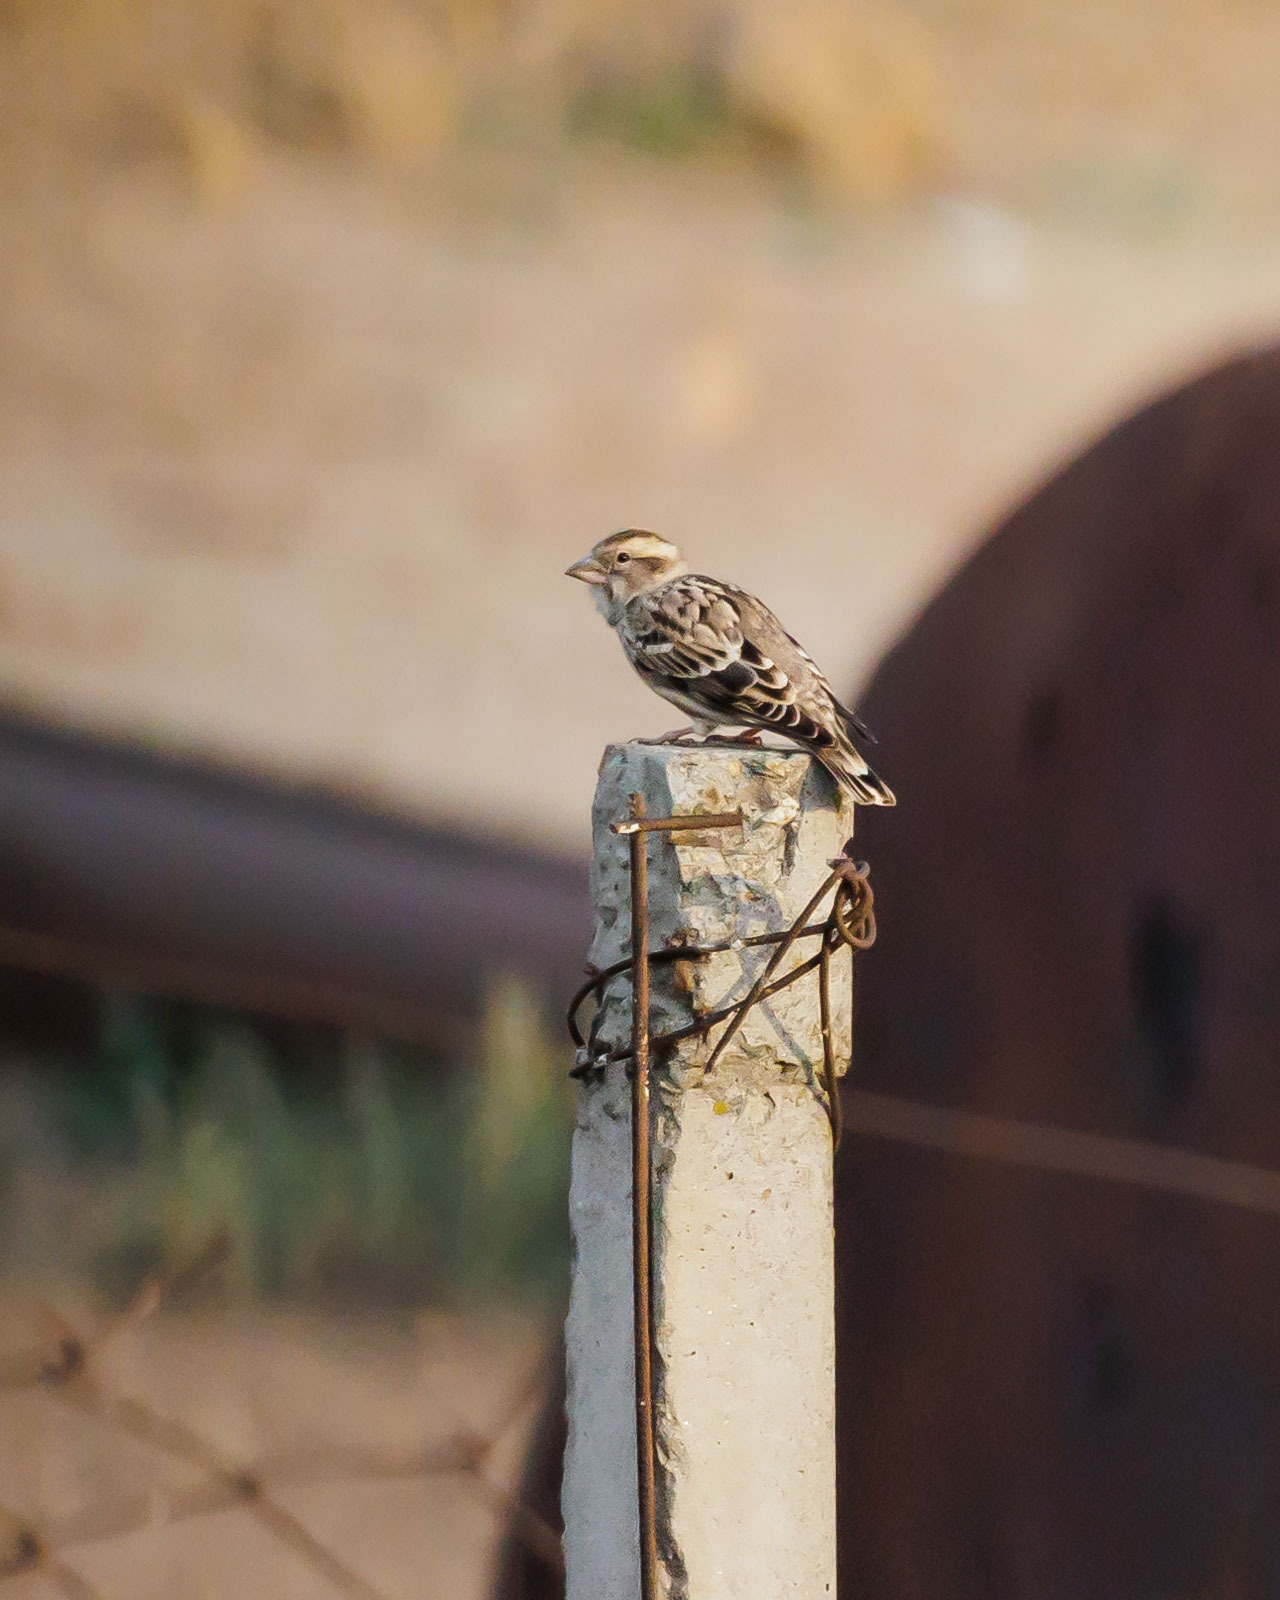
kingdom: Animalia
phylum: Chordata
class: Aves
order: Passeriformes
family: Passeridae
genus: Petronia
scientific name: Petronia petronia
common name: Rock sparrow
